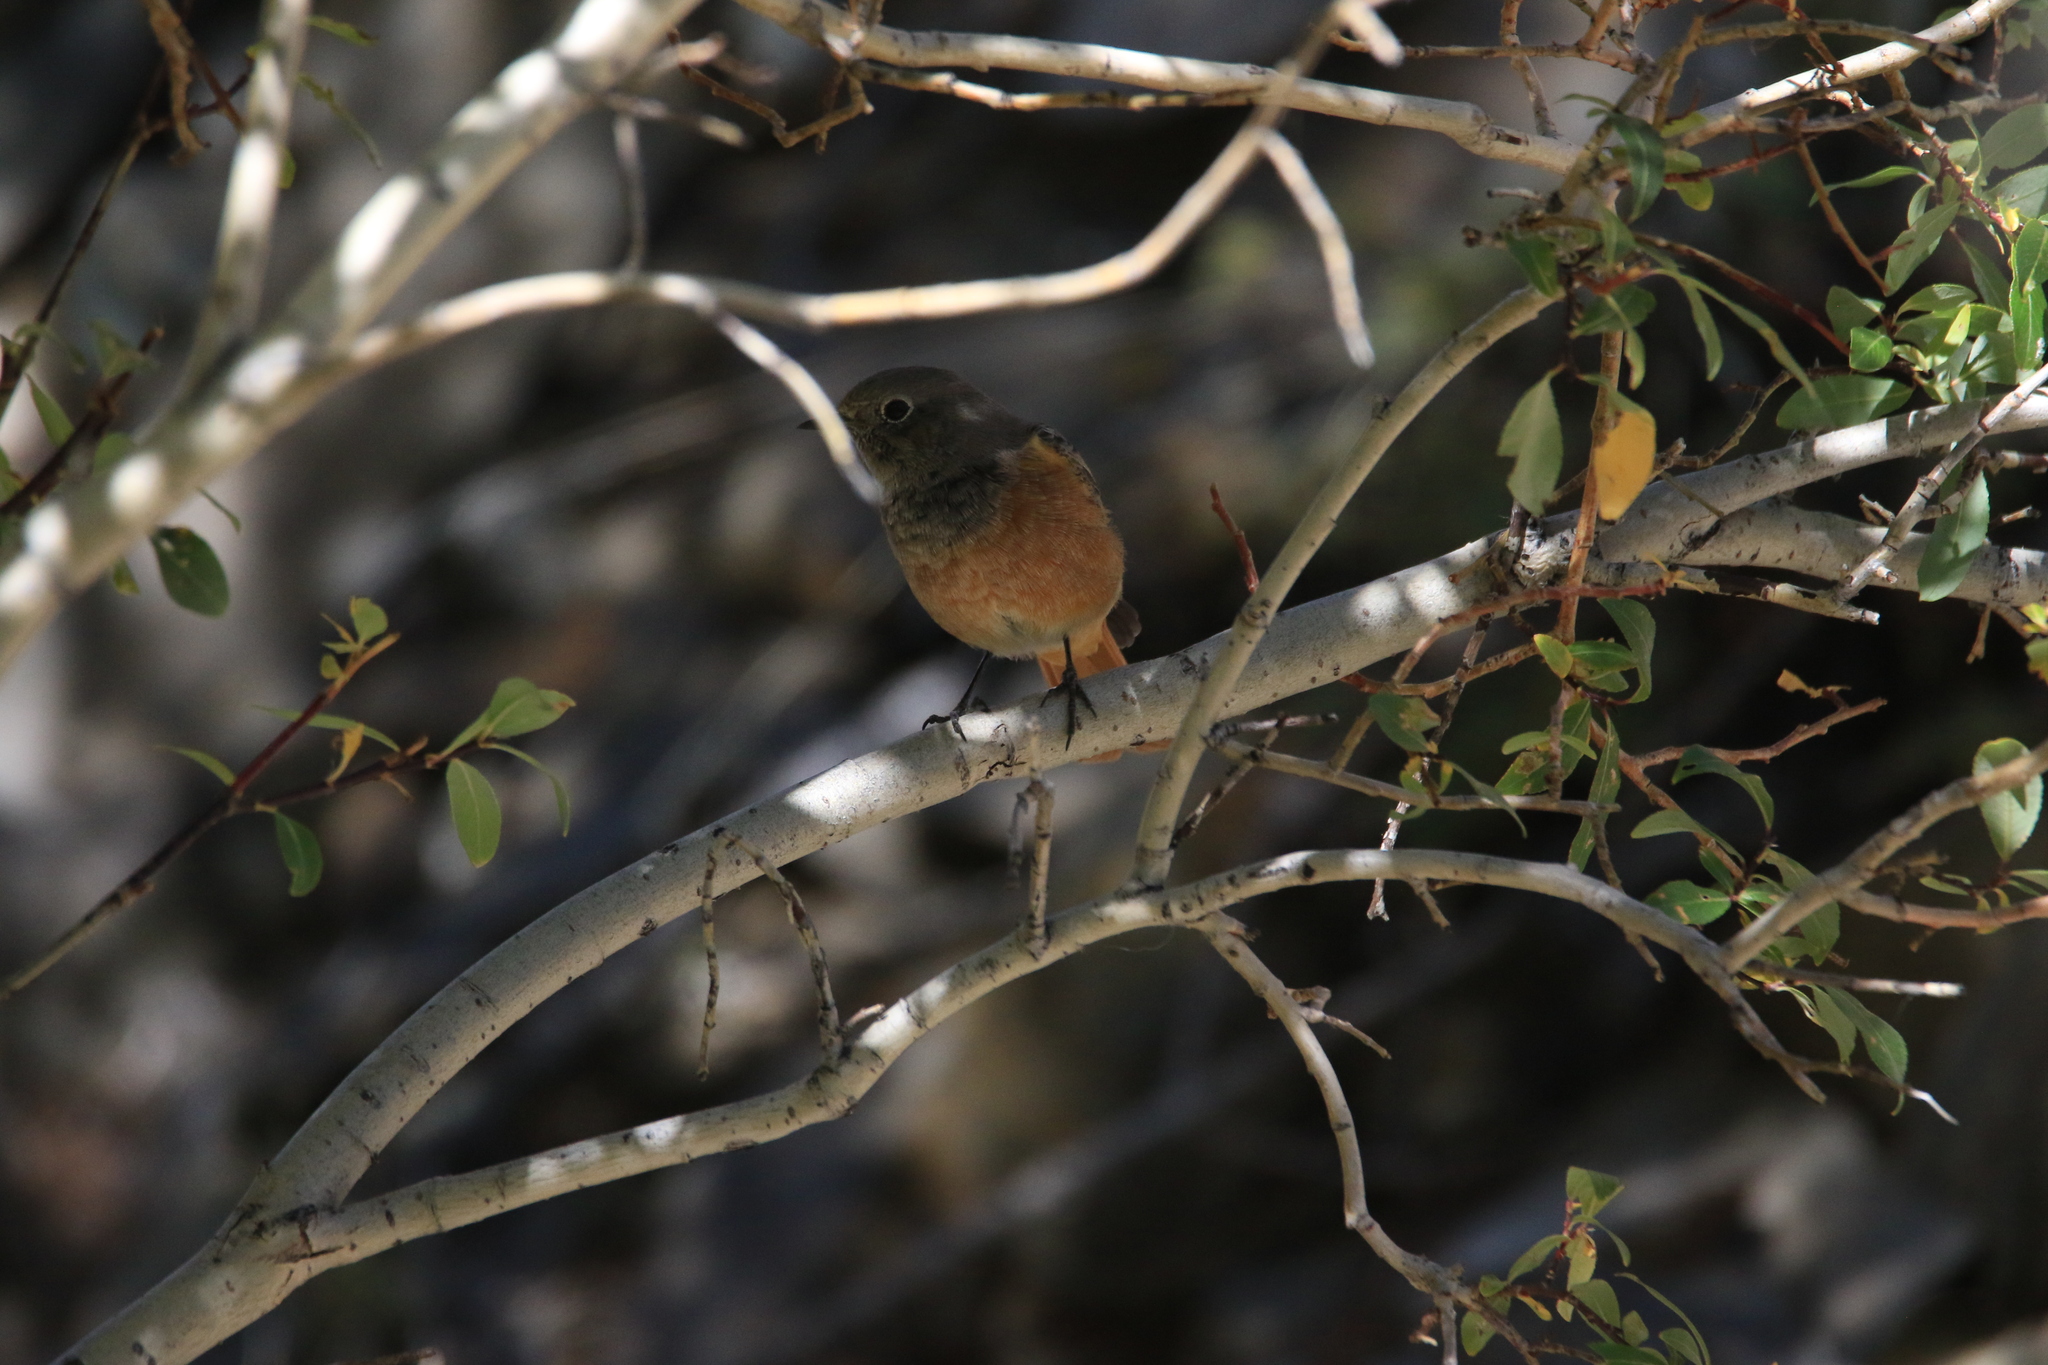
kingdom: Animalia
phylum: Chordata
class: Aves
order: Passeriformes
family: Muscicapidae
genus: Phoenicurus
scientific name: Phoenicurus phoenicurus
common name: Common redstart
